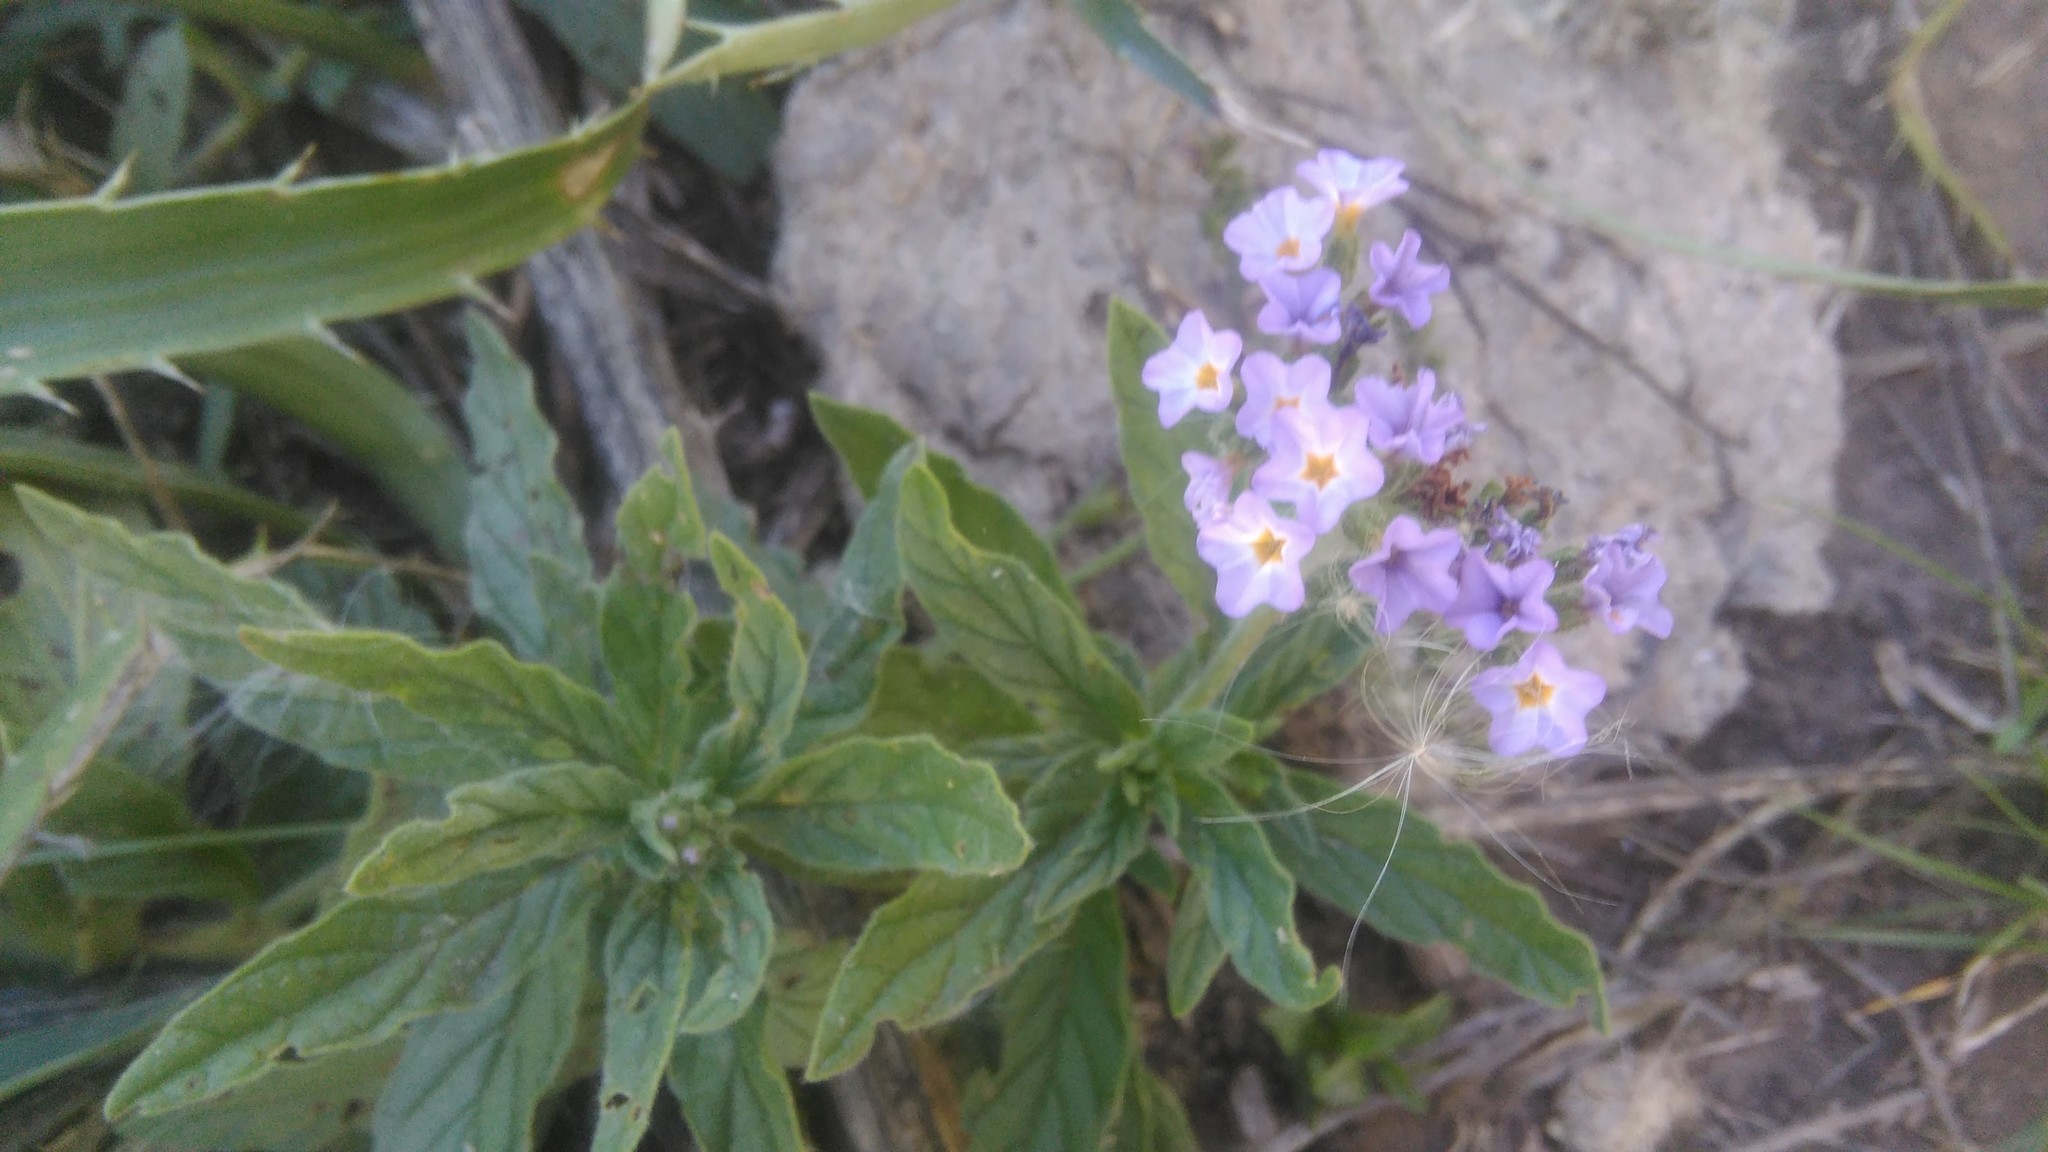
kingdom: Plantae
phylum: Tracheophyta
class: Magnoliopsida
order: Boraginales
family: Heliotropiaceae
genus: Heliotropium
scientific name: Heliotropium amplexicaule
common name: Clasping heliotrope
